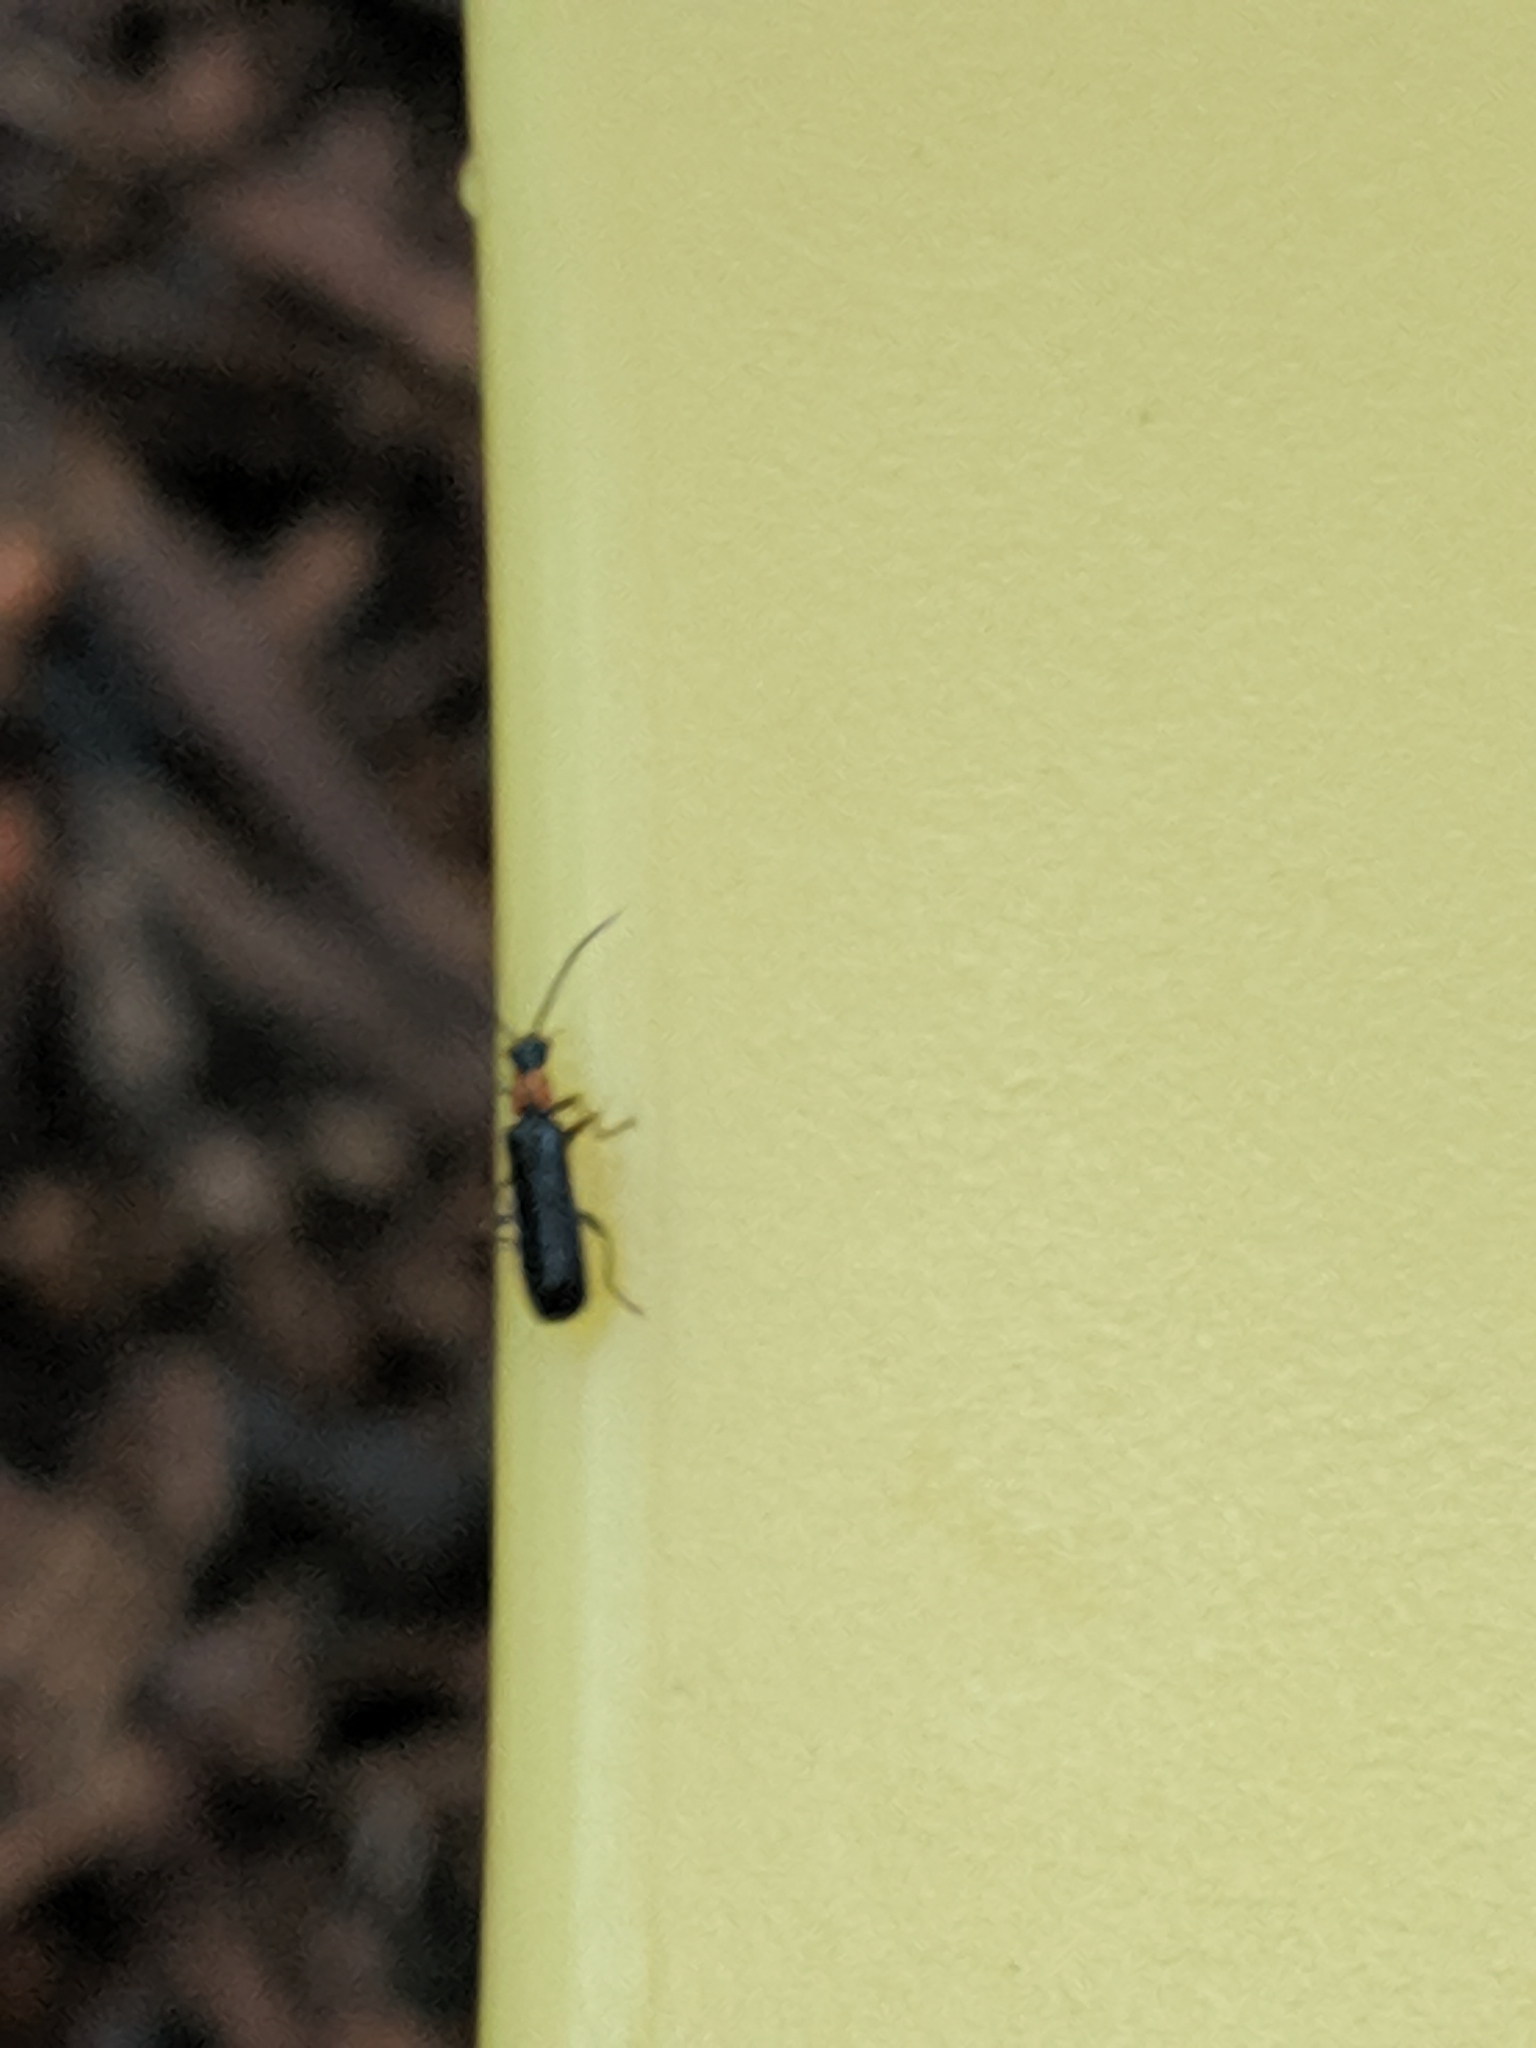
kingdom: Animalia
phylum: Arthropoda
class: Insecta
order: Coleoptera
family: Cantharidae
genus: Dichelotarsus
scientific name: Dichelotarsus
